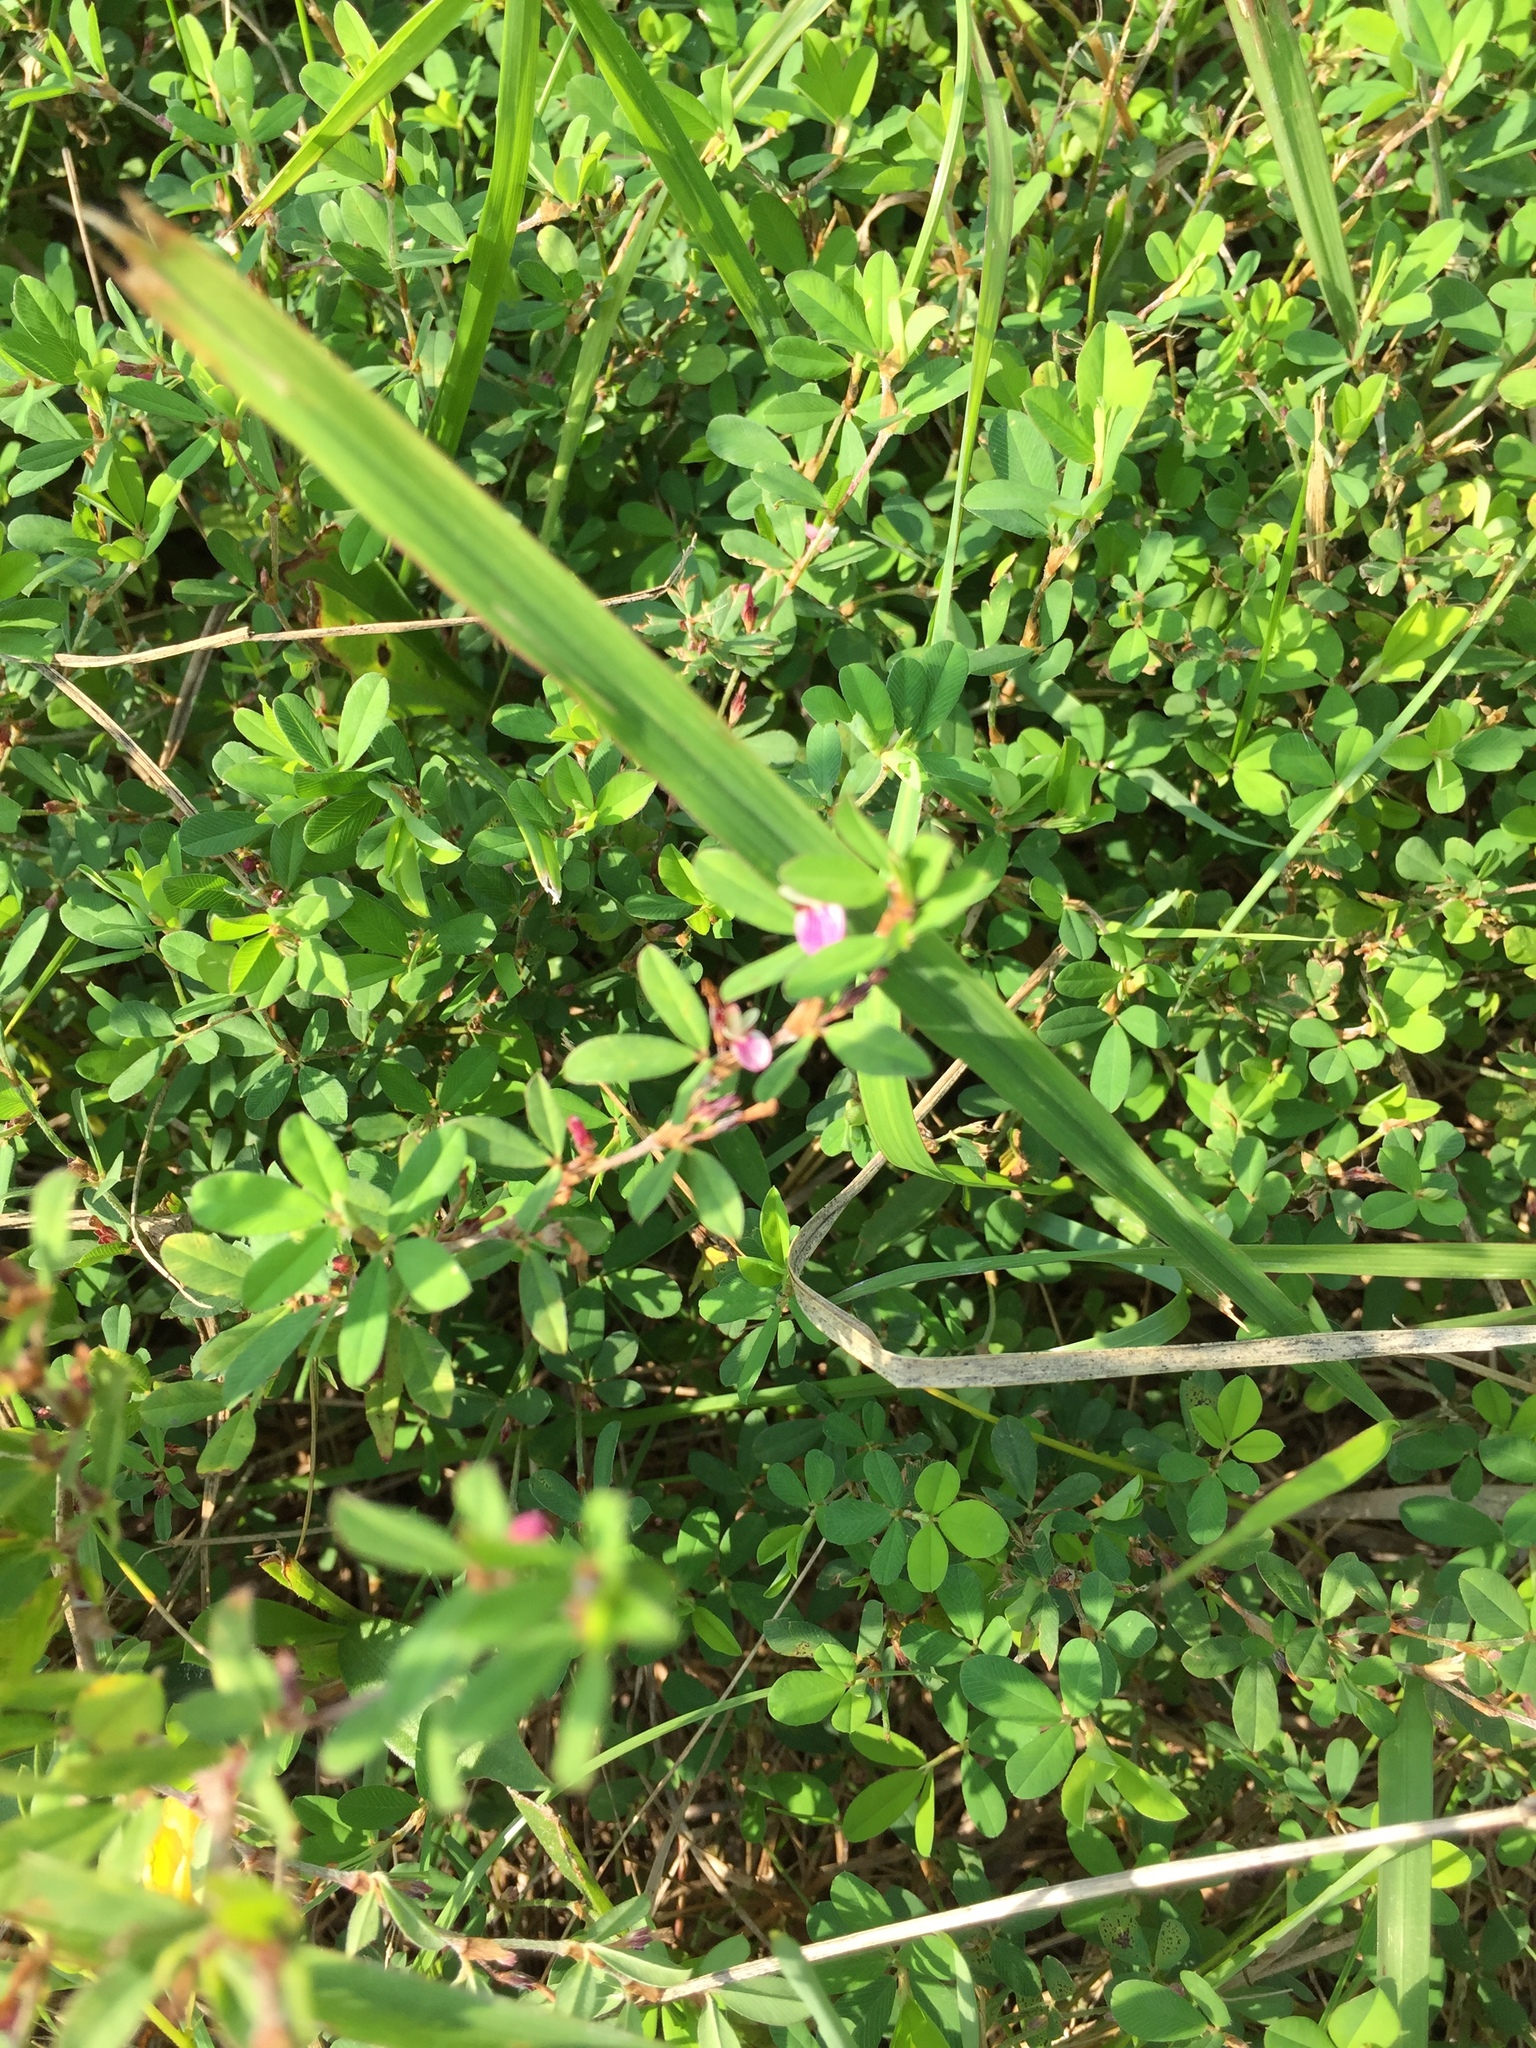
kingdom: Plantae
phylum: Tracheophyta
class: Magnoliopsida
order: Fabales
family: Fabaceae
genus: Kummerowia
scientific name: Kummerowia striata
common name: Japanese clover
